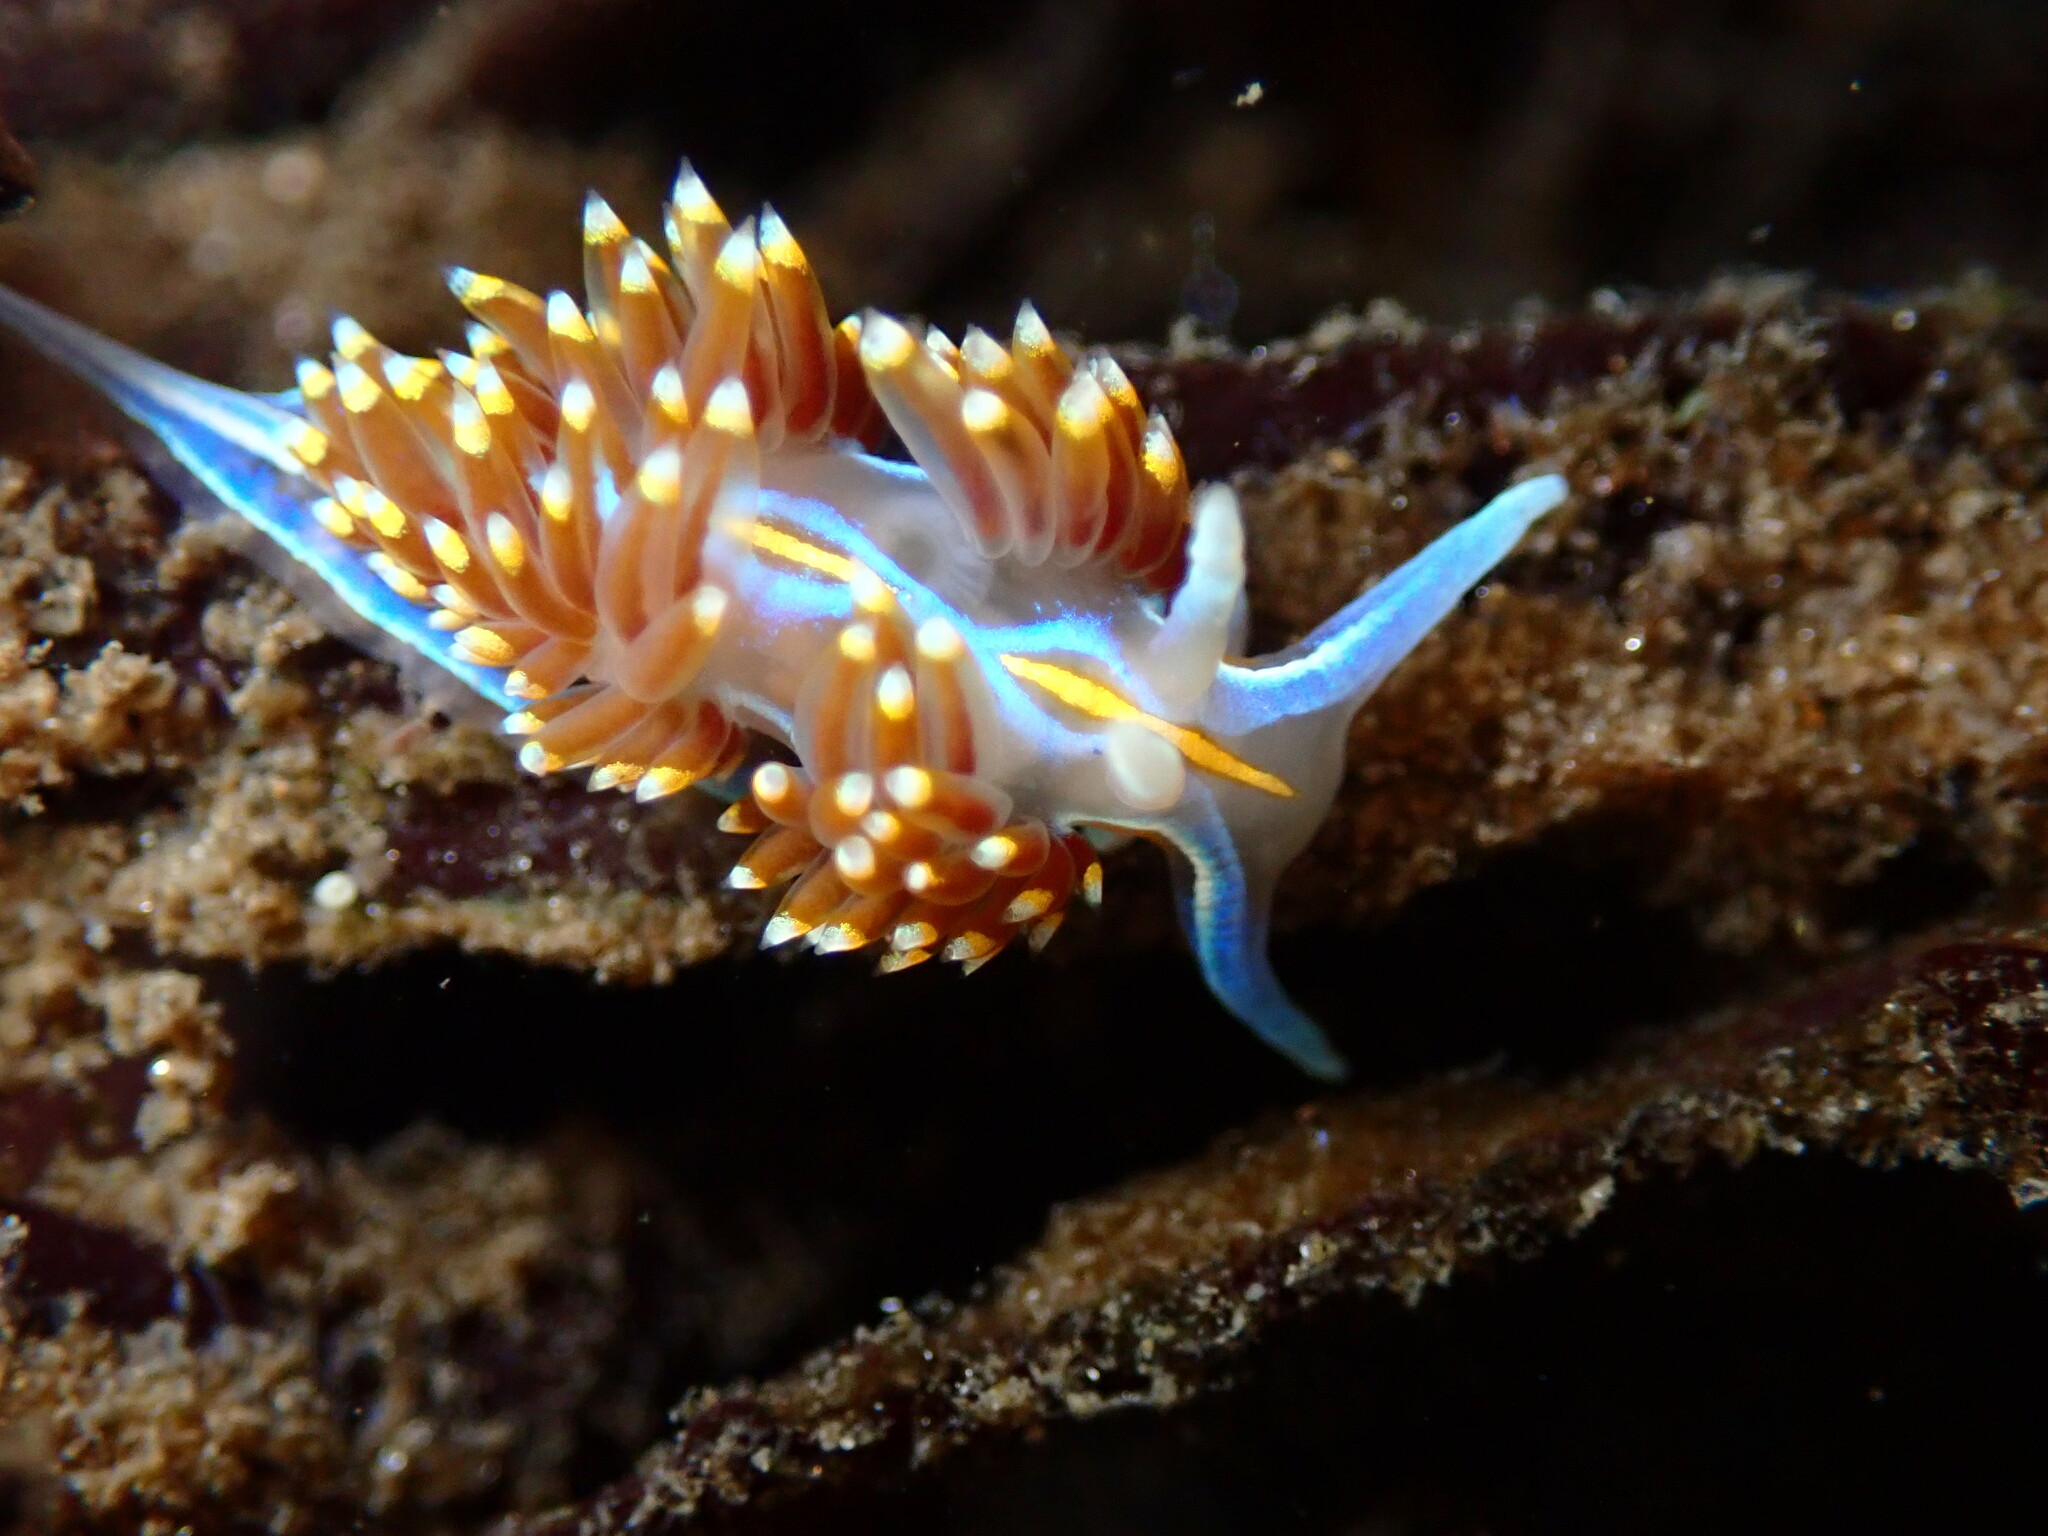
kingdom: Animalia
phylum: Mollusca
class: Gastropoda
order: Nudibranchia
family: Myrrhinidae
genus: Hermissenda
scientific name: Hermissenda opalescens
